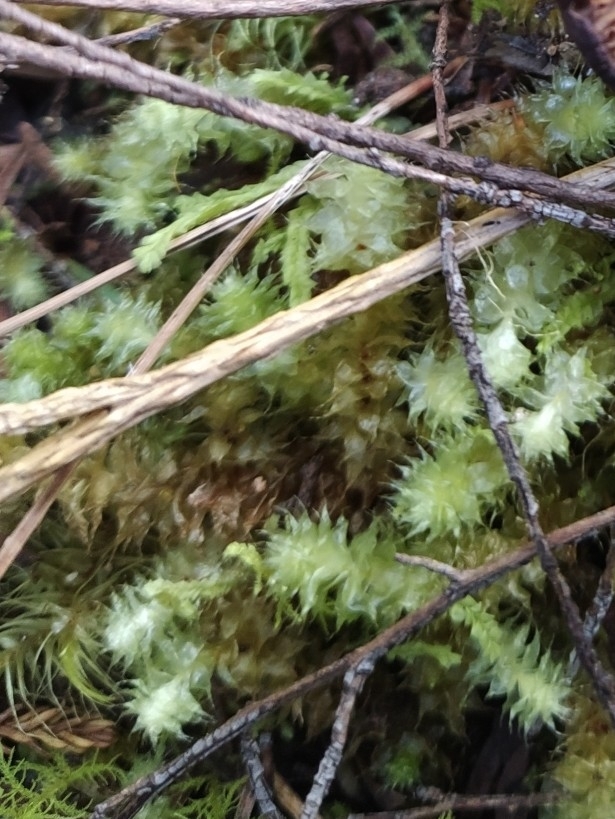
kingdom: Plantae
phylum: Bryophyta
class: Bryopsida
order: Ptychomniales
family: Ptychomniaceae
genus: Ptychomnion
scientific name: Ptychomnion aciculare
